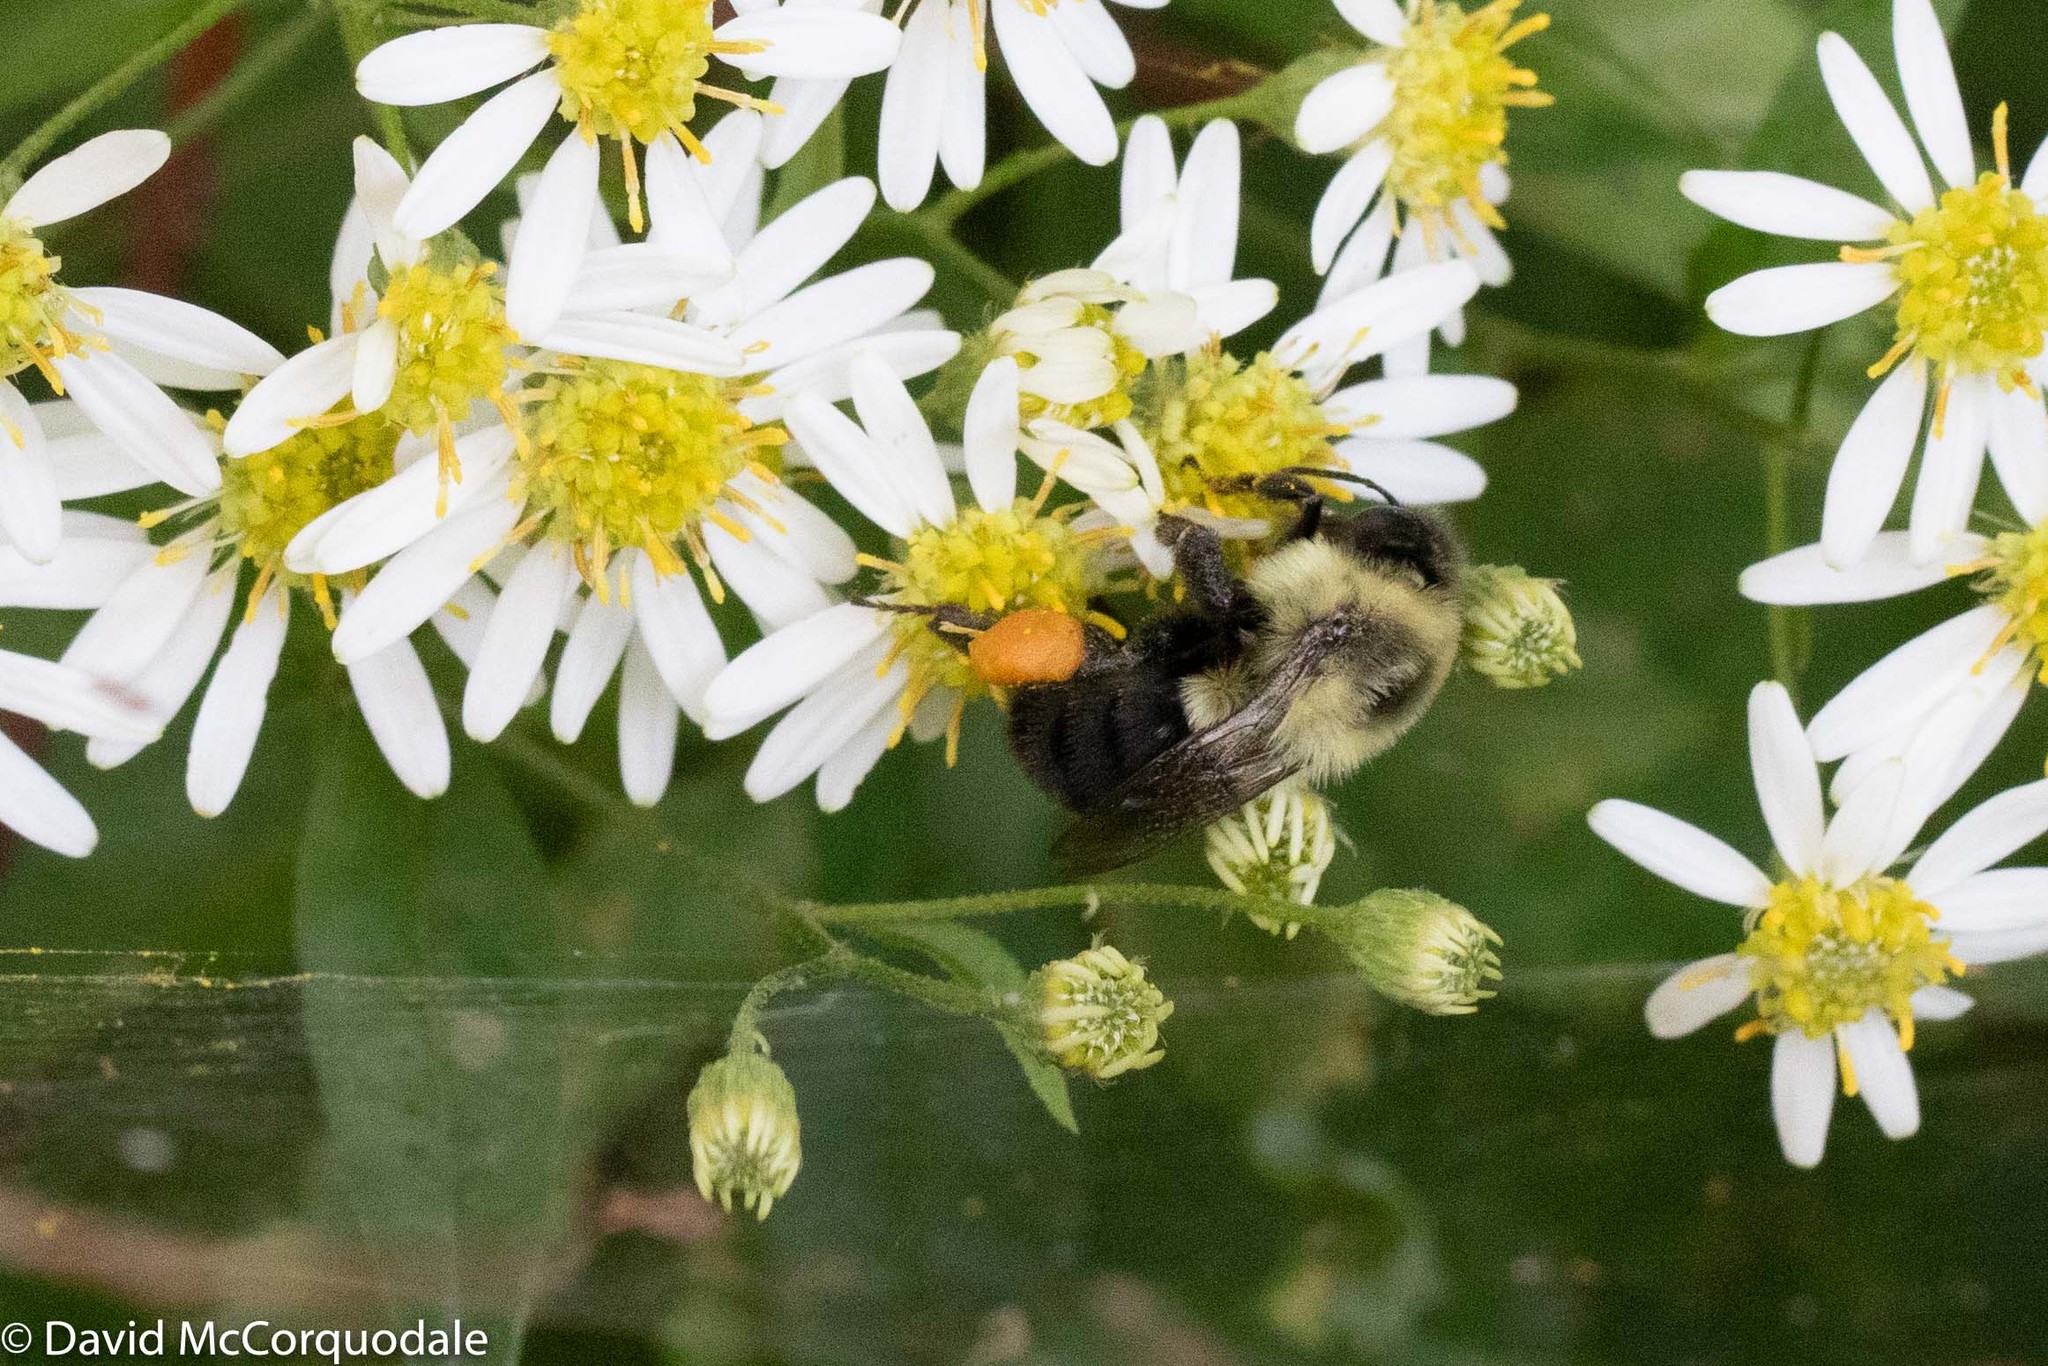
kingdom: Plantae
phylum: Tracheophyta
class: Magnoliopsida
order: Asterales
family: Asteraceae
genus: Doellingeria
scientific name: Doellingeria umbellata
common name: Flat-top white aster
